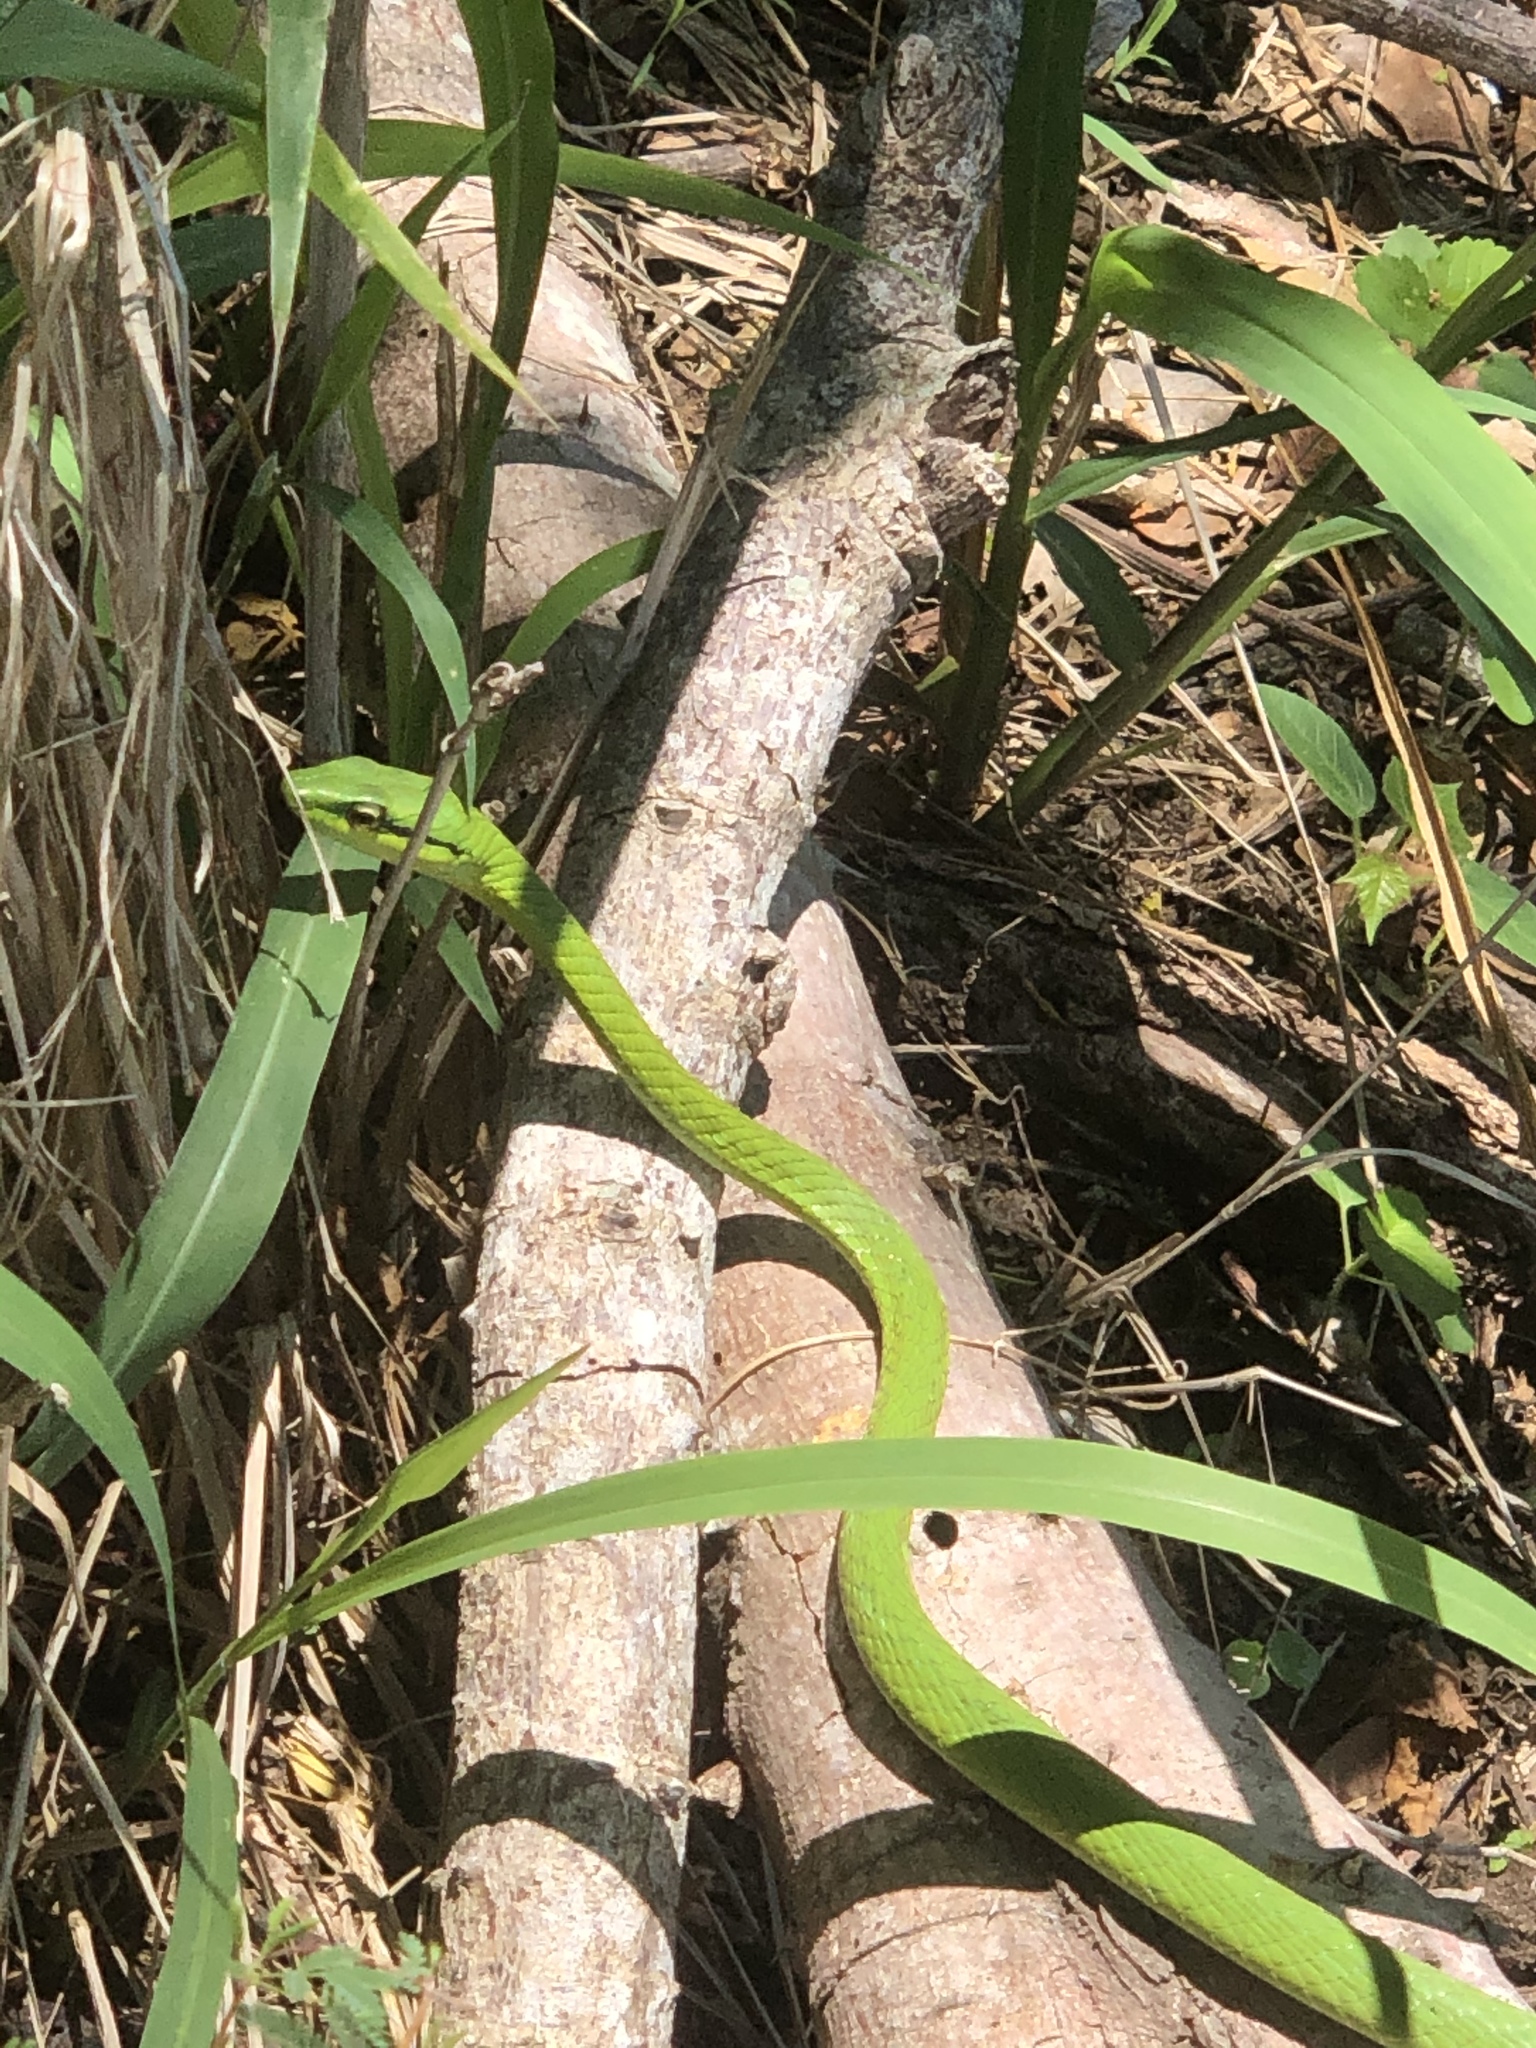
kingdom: Animalia
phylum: Chordata
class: Squamata
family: Colubridae
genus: Leptophis
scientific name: Leptophis ahaetulla
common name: Parrot snake
